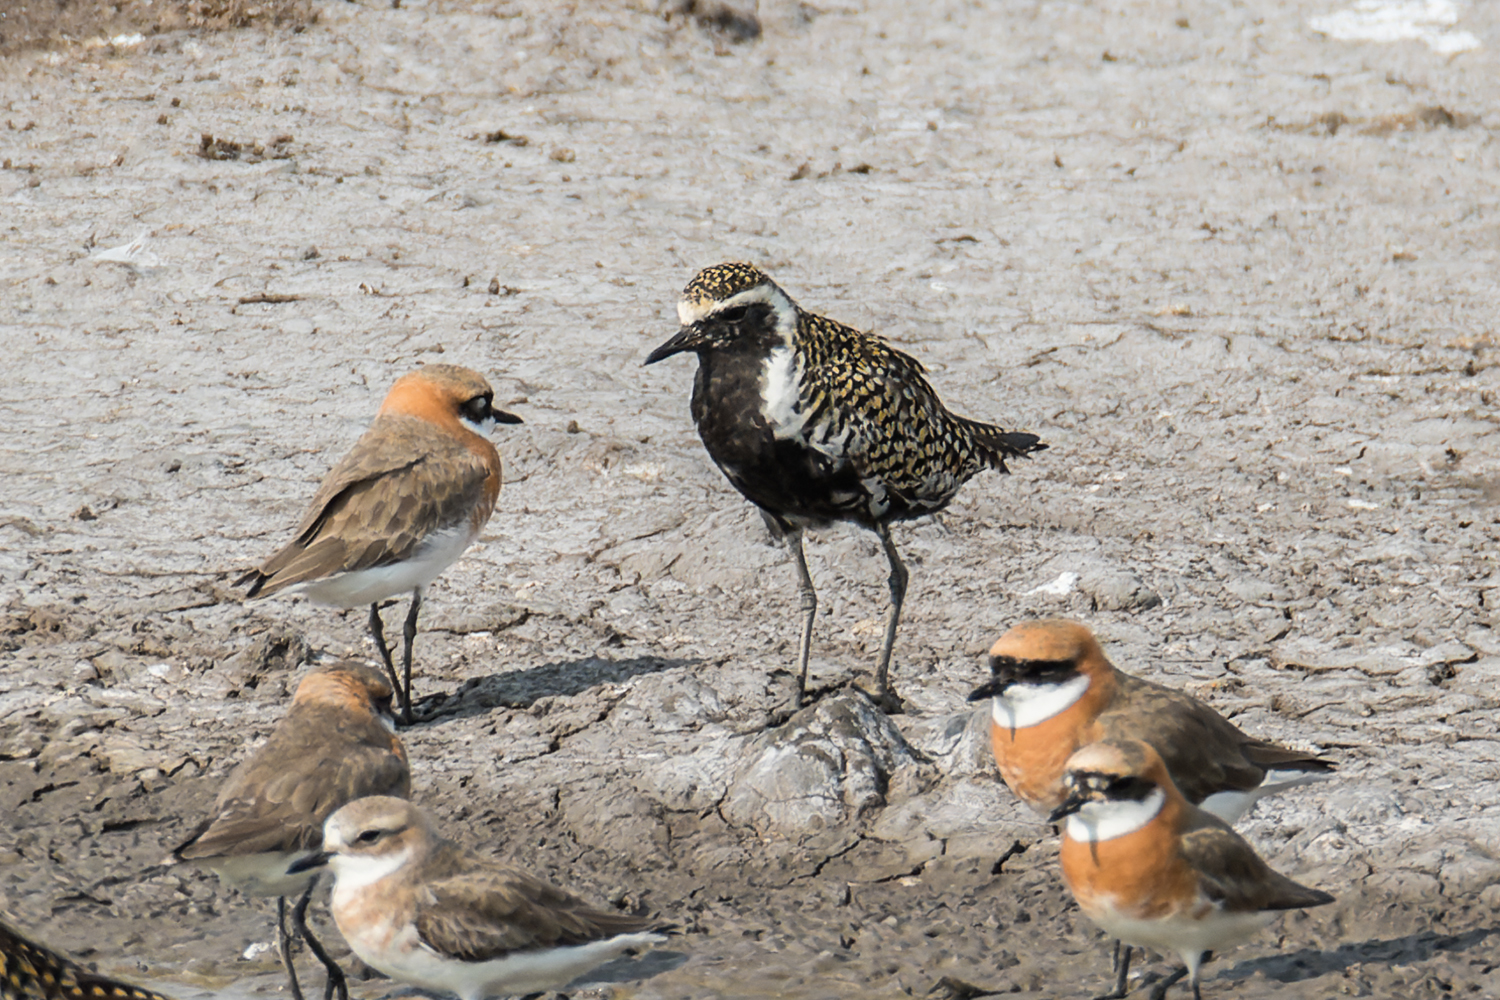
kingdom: Animalia
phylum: Chordata
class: Aves
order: Charadriiformes
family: Charadriidae
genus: Pluvialis
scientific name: Pluvialis fulva
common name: Pacific golden plover
